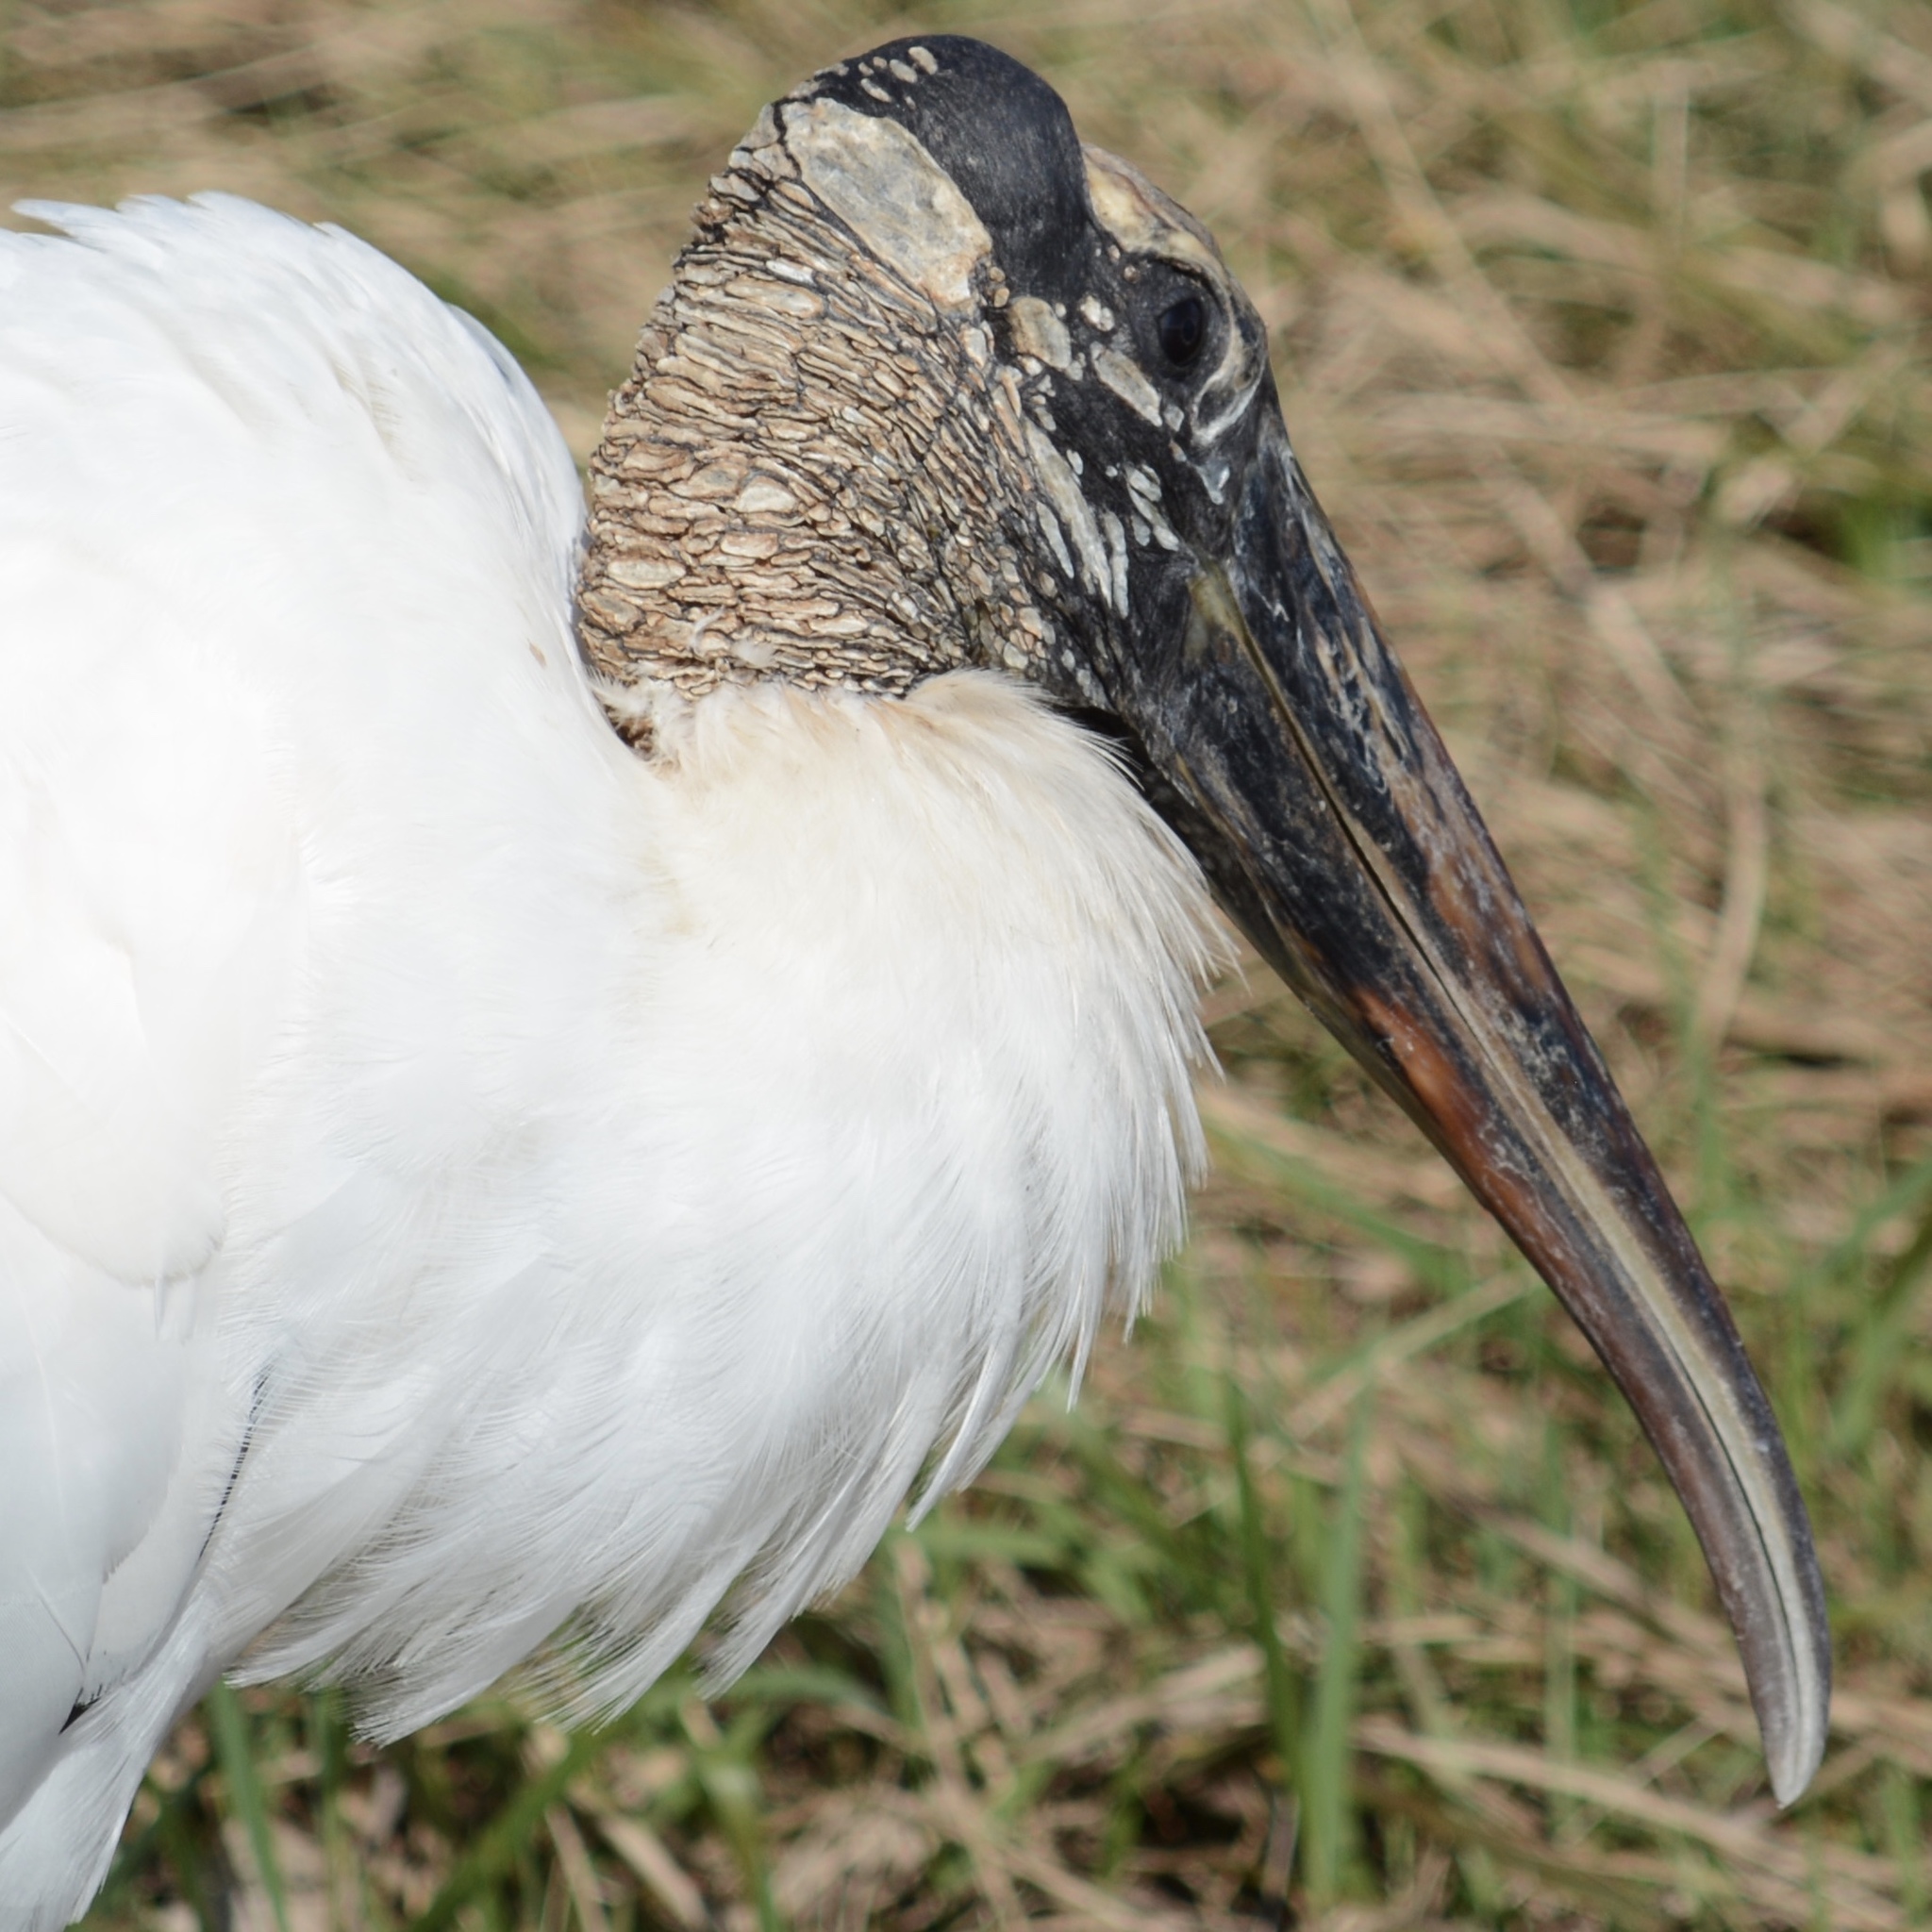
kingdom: Animalia
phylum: Chordata
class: Aves
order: Ciconiiformes
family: Ciconiidae
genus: Mycteria
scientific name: Mycteria americana
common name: Wood stork
